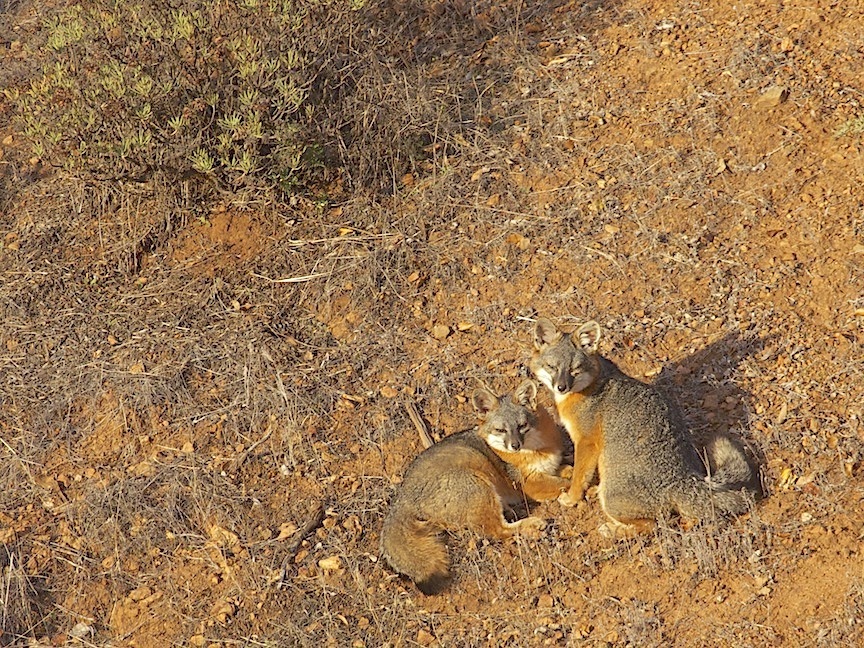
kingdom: Animalia
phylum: Chordata
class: Mammalia
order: Carnivora
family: Canidae
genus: Urocyon
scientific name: Urocyon littoralis
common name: Island gray fox
